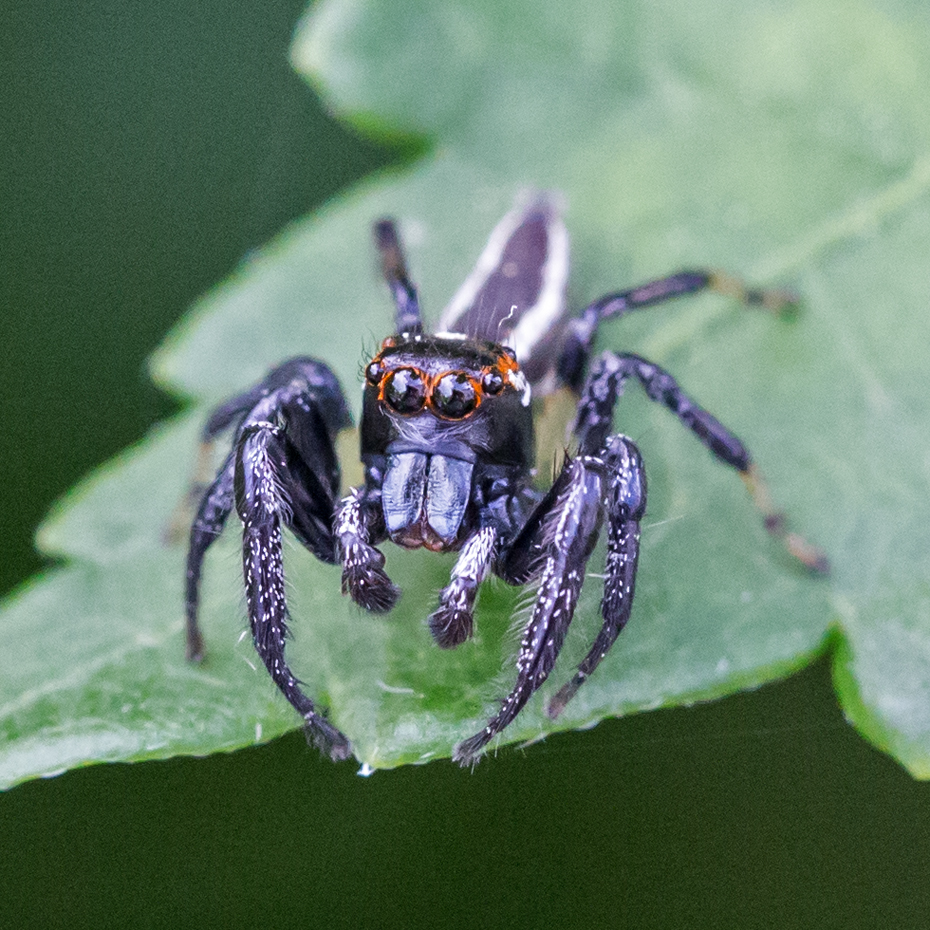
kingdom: Animalia
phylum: Arthropoda
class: Arachnida
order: Araneae
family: Salticidae
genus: Colonus
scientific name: Colonus sylvanus
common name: Jumping spiders
